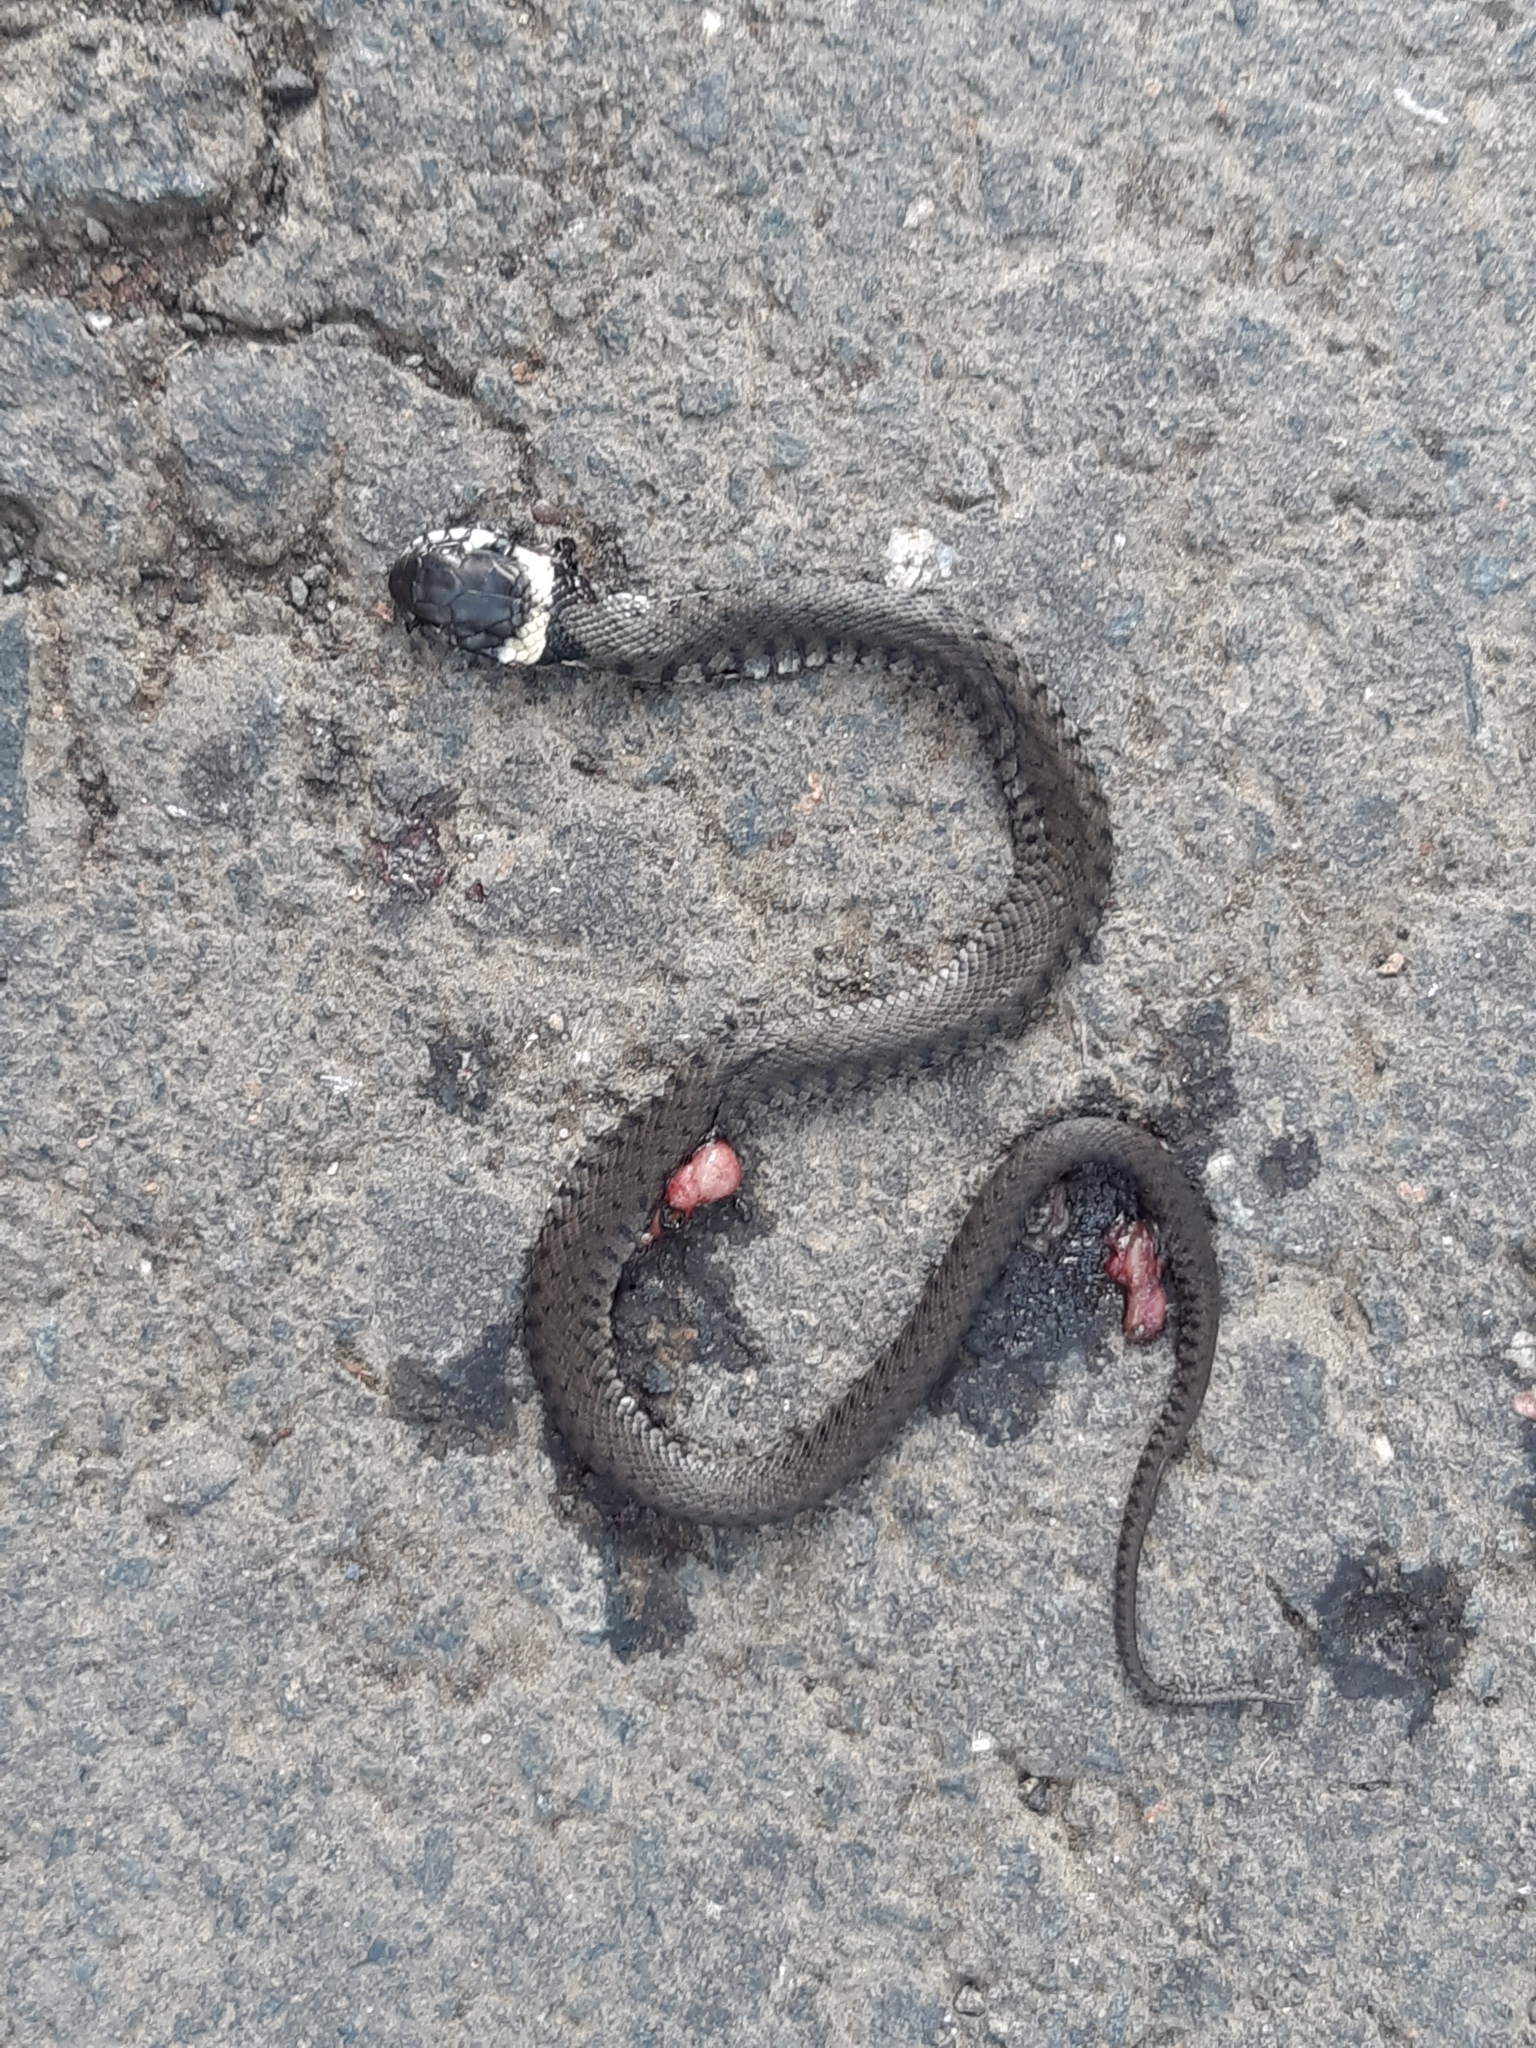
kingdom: Animalia
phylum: Chordata
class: Squamata
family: Colubridae
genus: Natrix
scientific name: Natrix helvetica
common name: Banded grass snake
